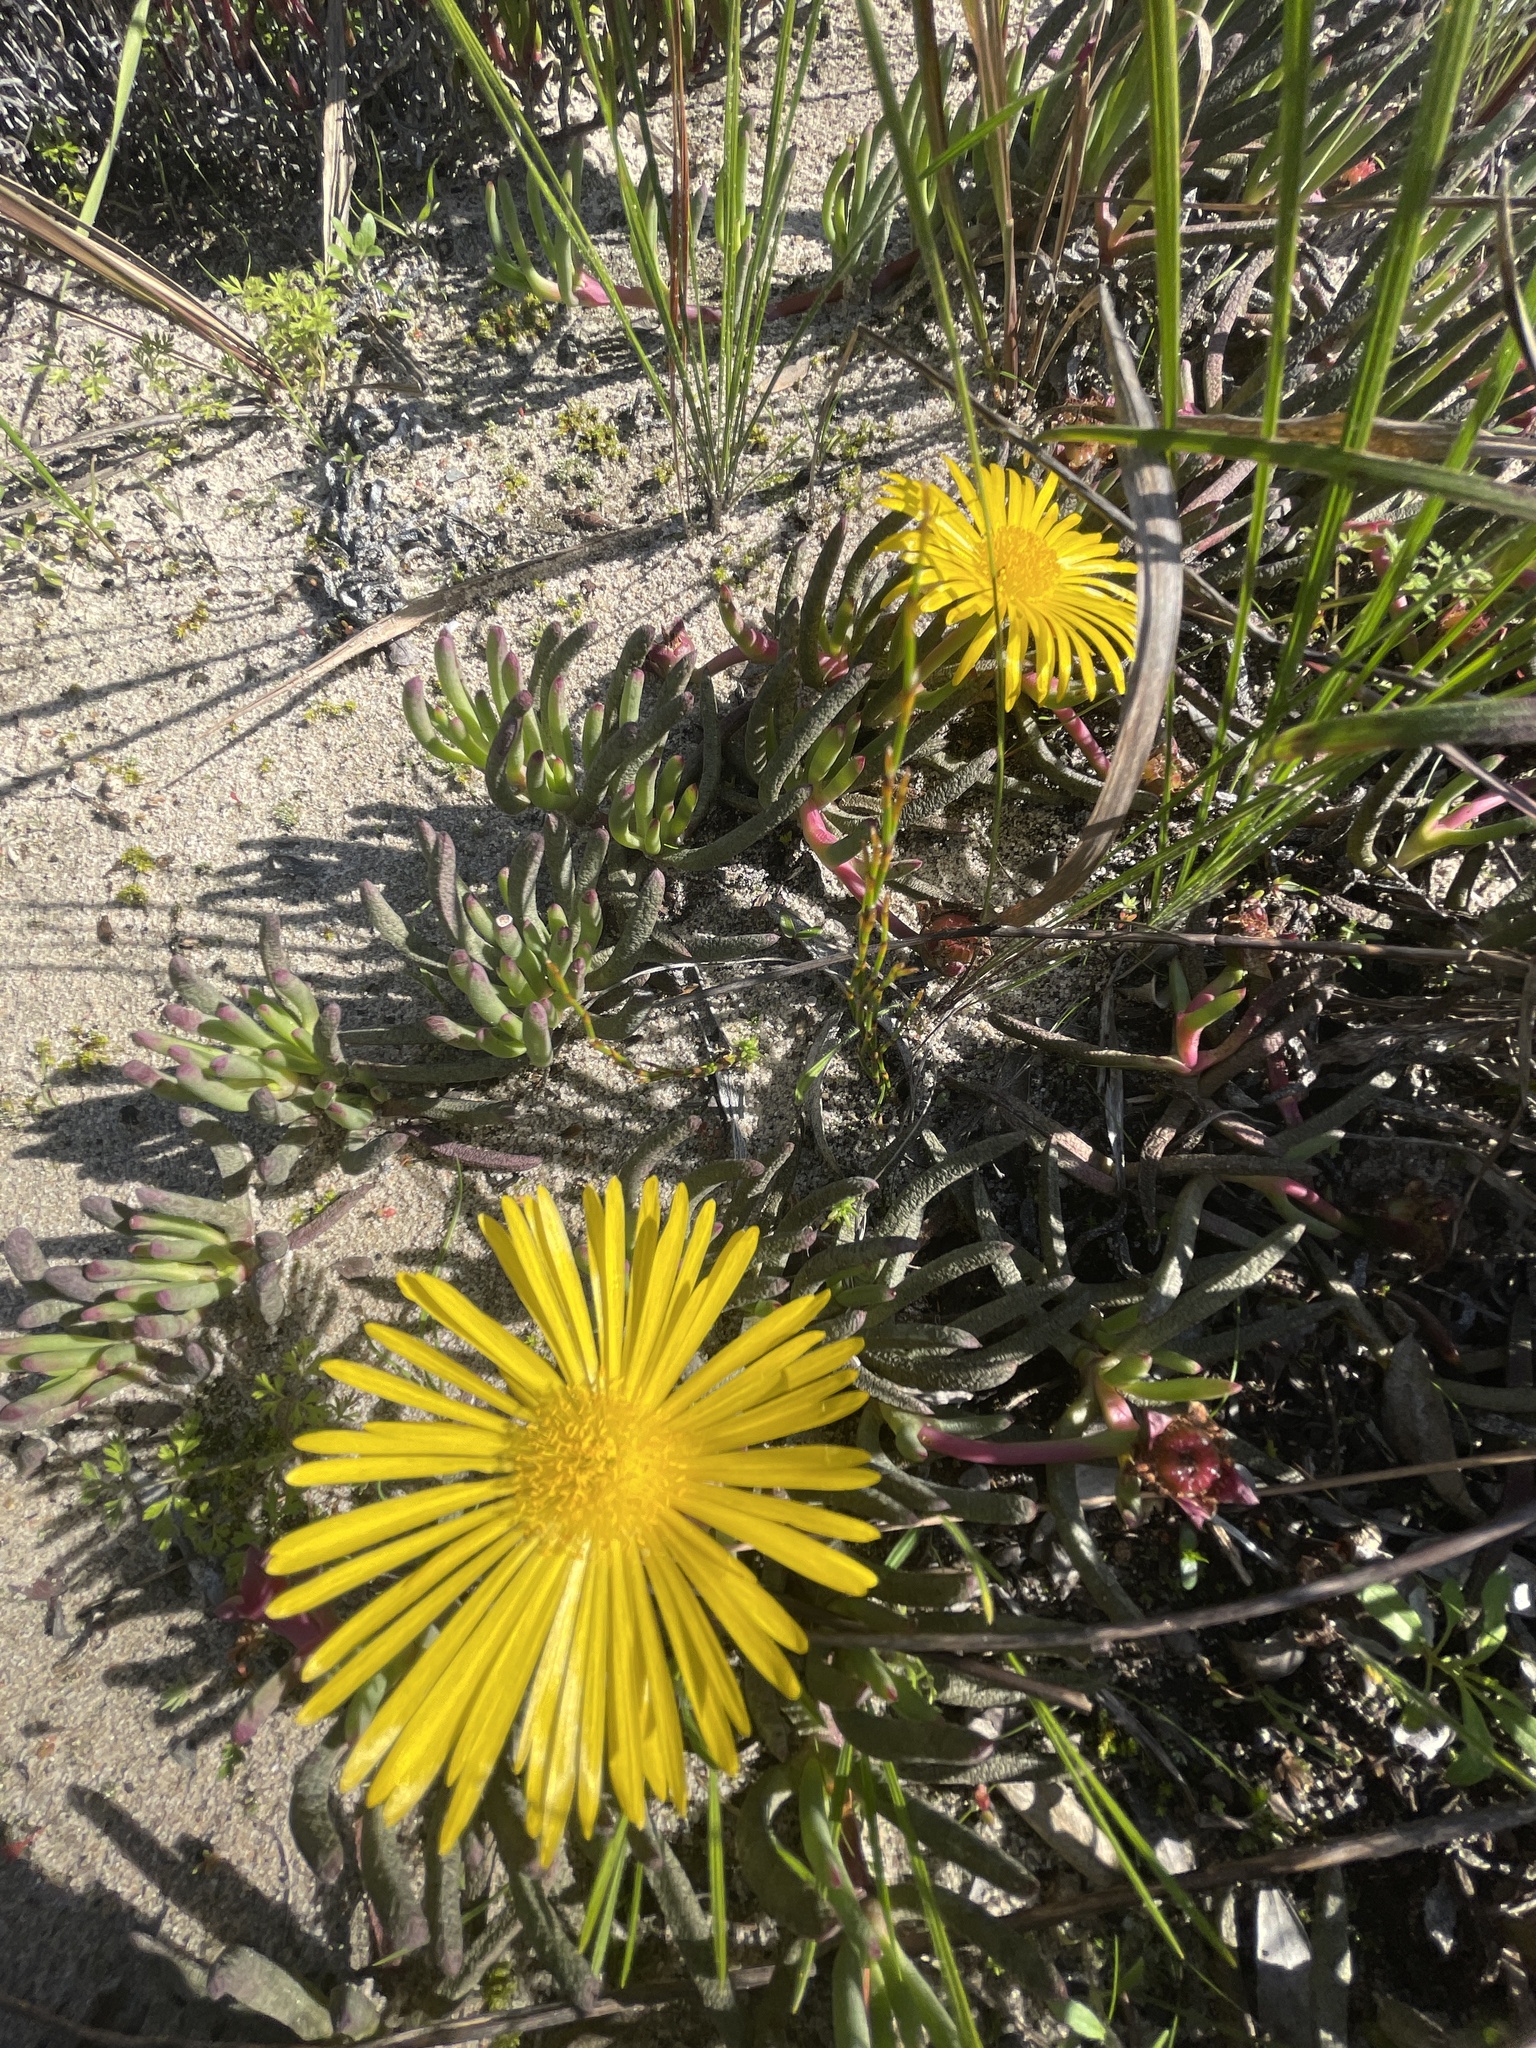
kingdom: Plantae
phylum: Tracheophyta
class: Magnoliopsida
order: Caryophyllales
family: Aizoaceae
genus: Jordaaniella
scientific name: Jordaaniella dubia
